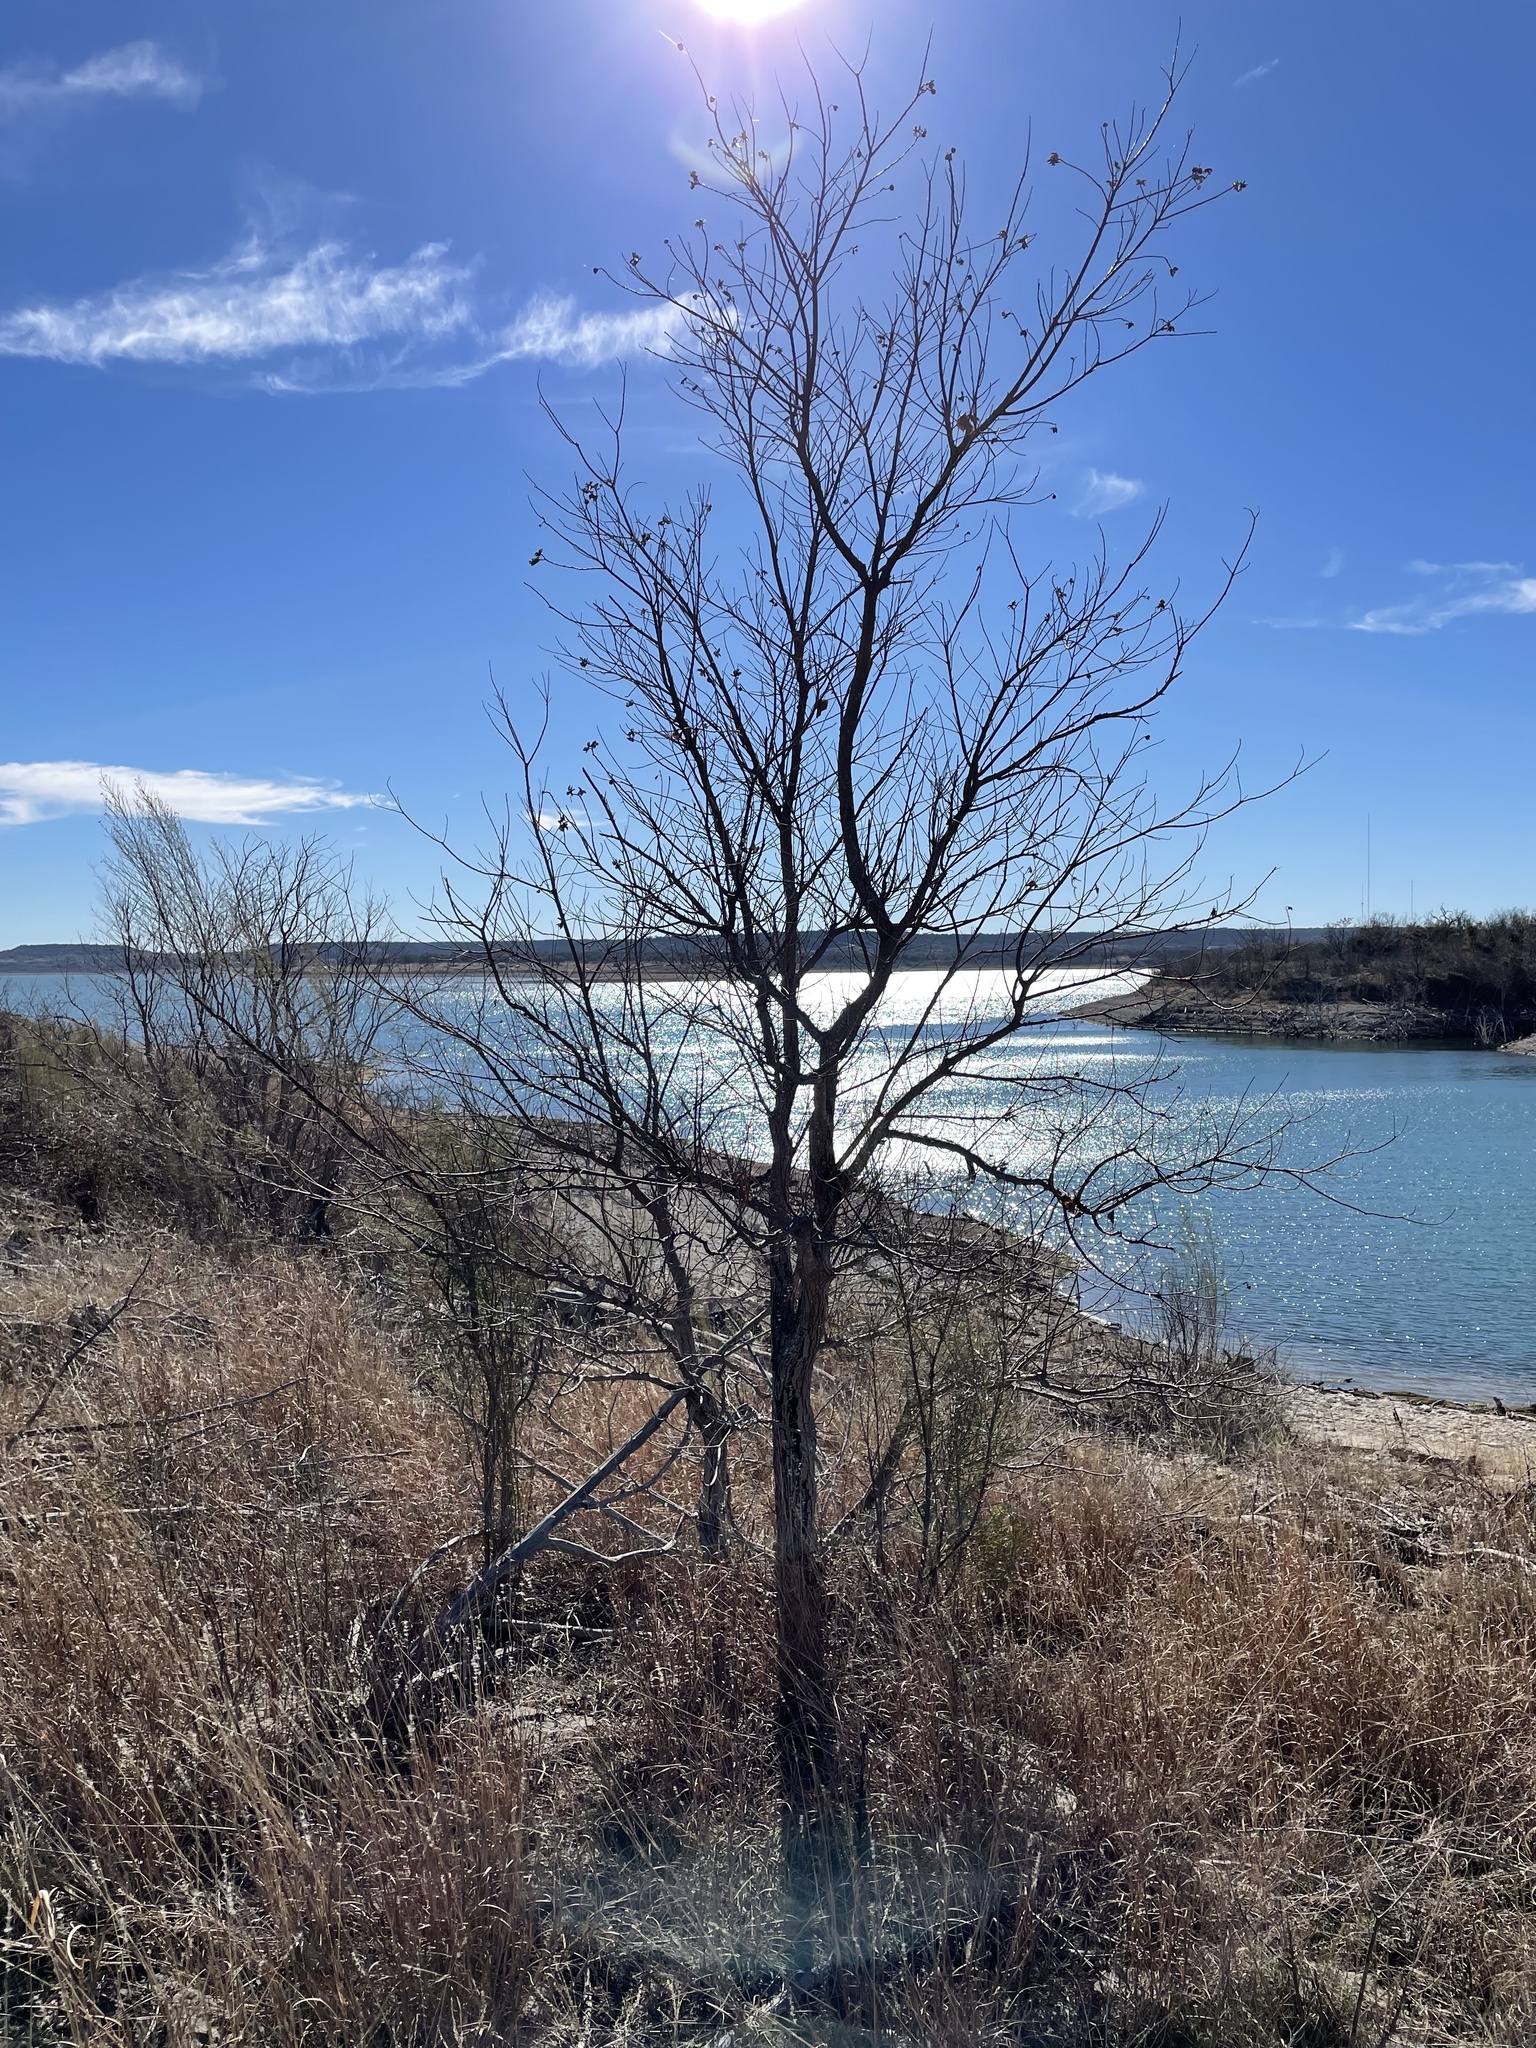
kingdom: Plantae
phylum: Tracheophyta
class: Magnoliopsida
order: Malpighiales
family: Euphorbiaceae
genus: Triadica
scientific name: Triadica sebifera
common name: Chinese tallow
